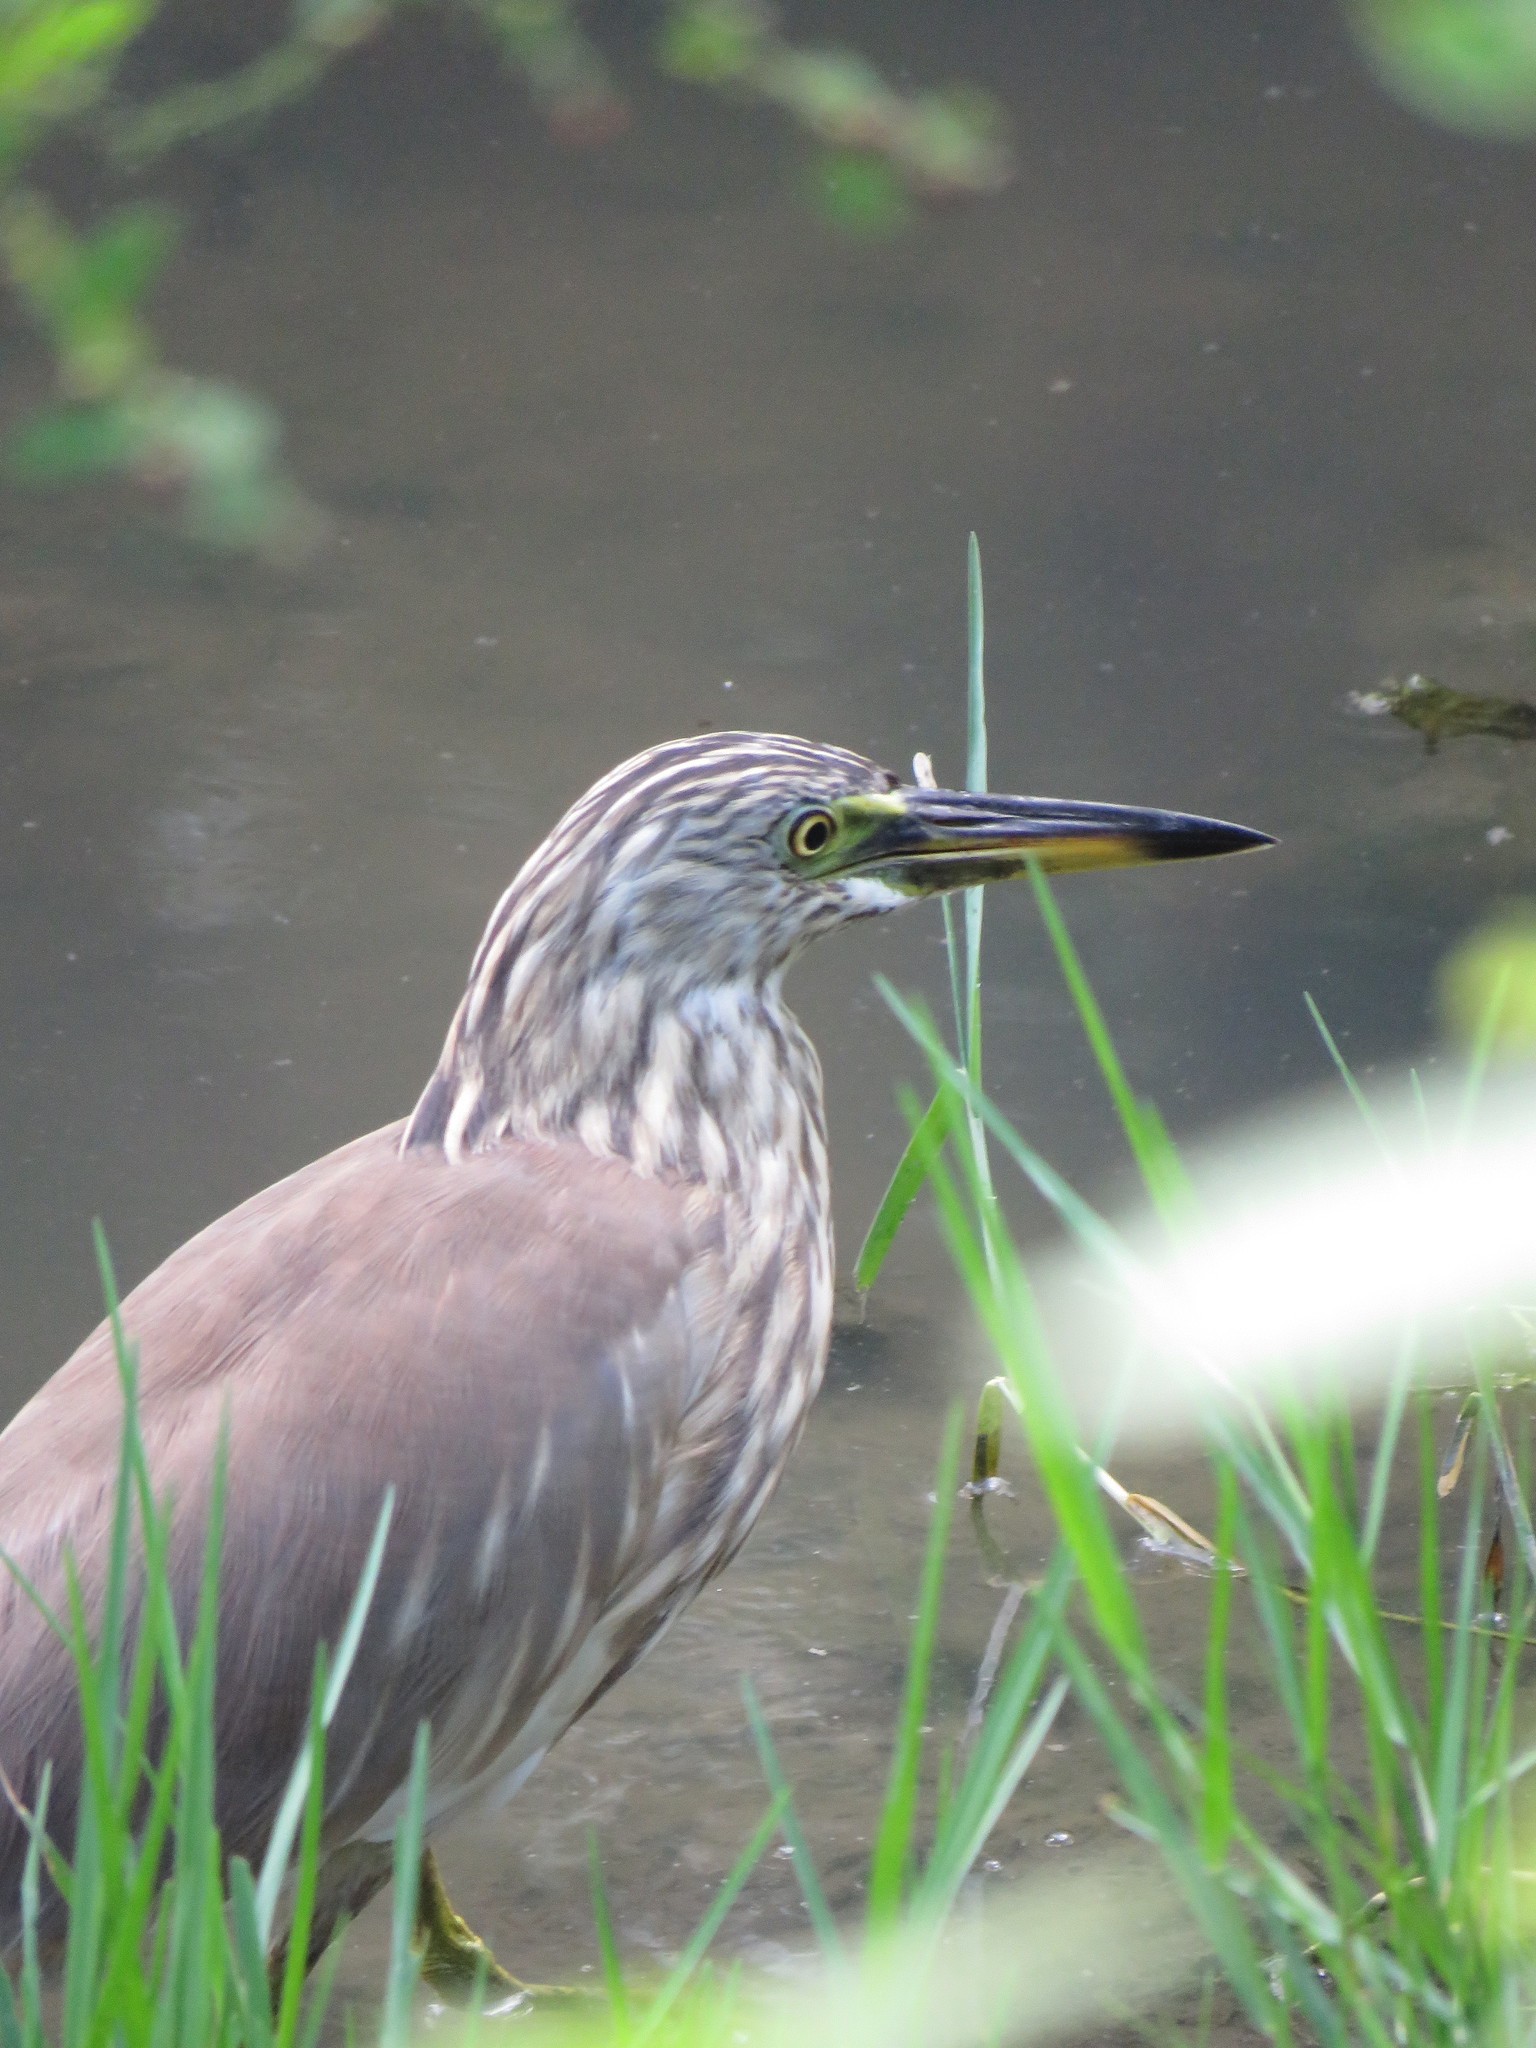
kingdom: Animalia
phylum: Chordata
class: Aves
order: Pelecaniformes
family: Ardeidae
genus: Ardeola
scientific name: Ardeola grayii
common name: Indian pond heron
